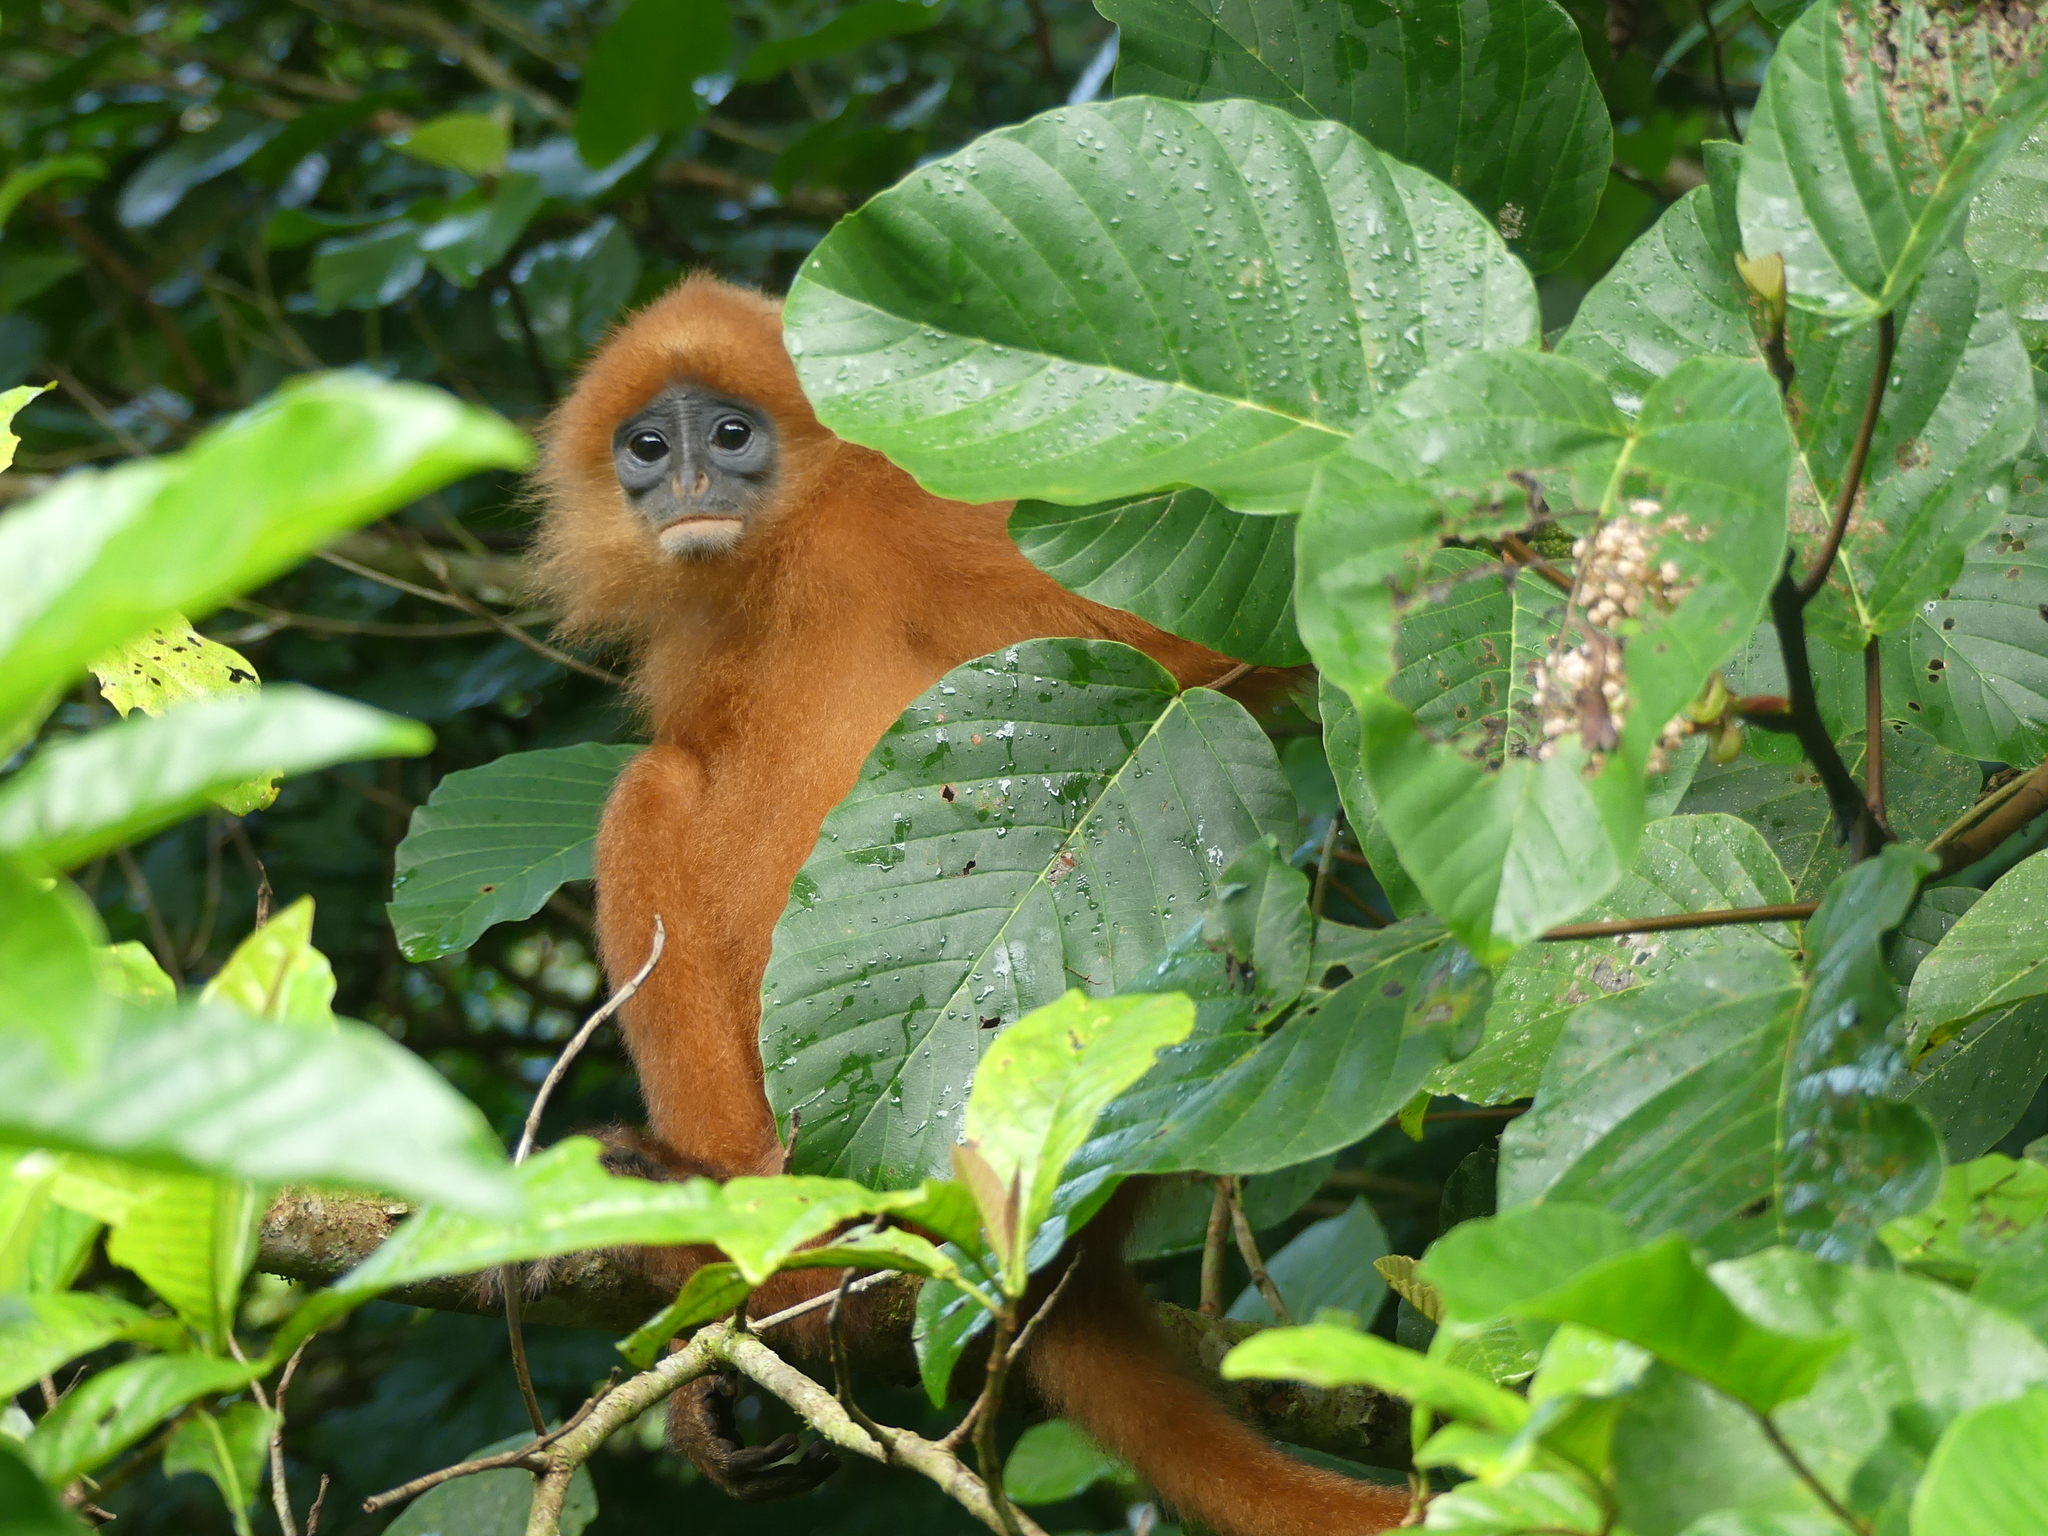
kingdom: Animalia
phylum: Chordata
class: Mammalia
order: Primates
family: Cercopithecidae
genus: Presbytis
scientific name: Presbytis rubicunda
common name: Maroon leaf monkey
